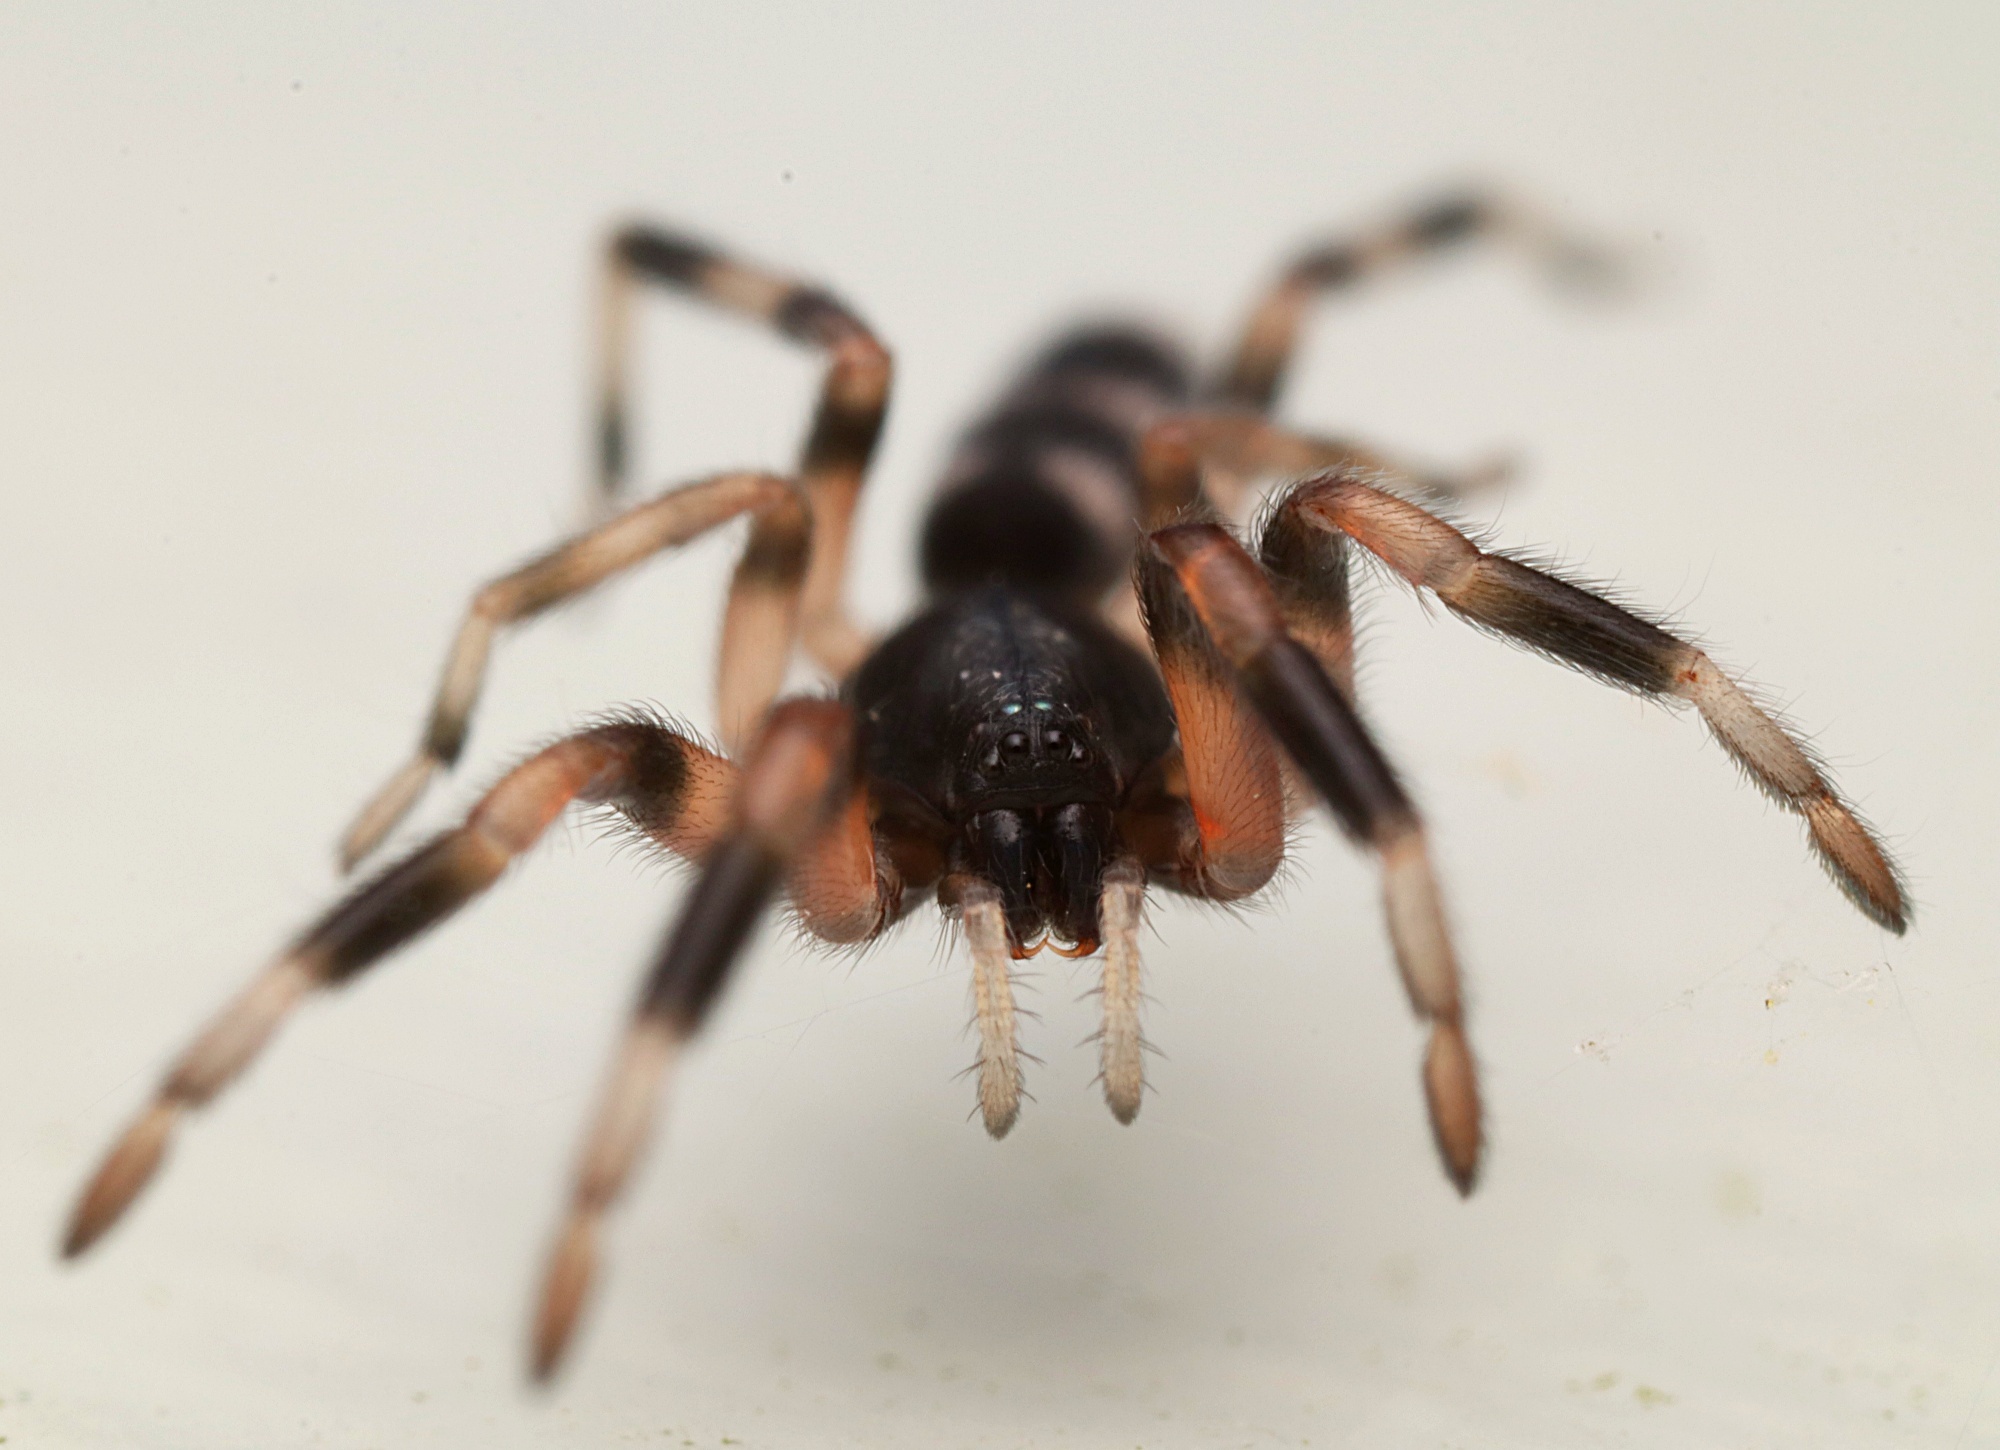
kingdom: Animalia
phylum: Arthropoda
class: Arachnida
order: Araneae
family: Lamponidae
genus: Lampona
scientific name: Lampona murina
